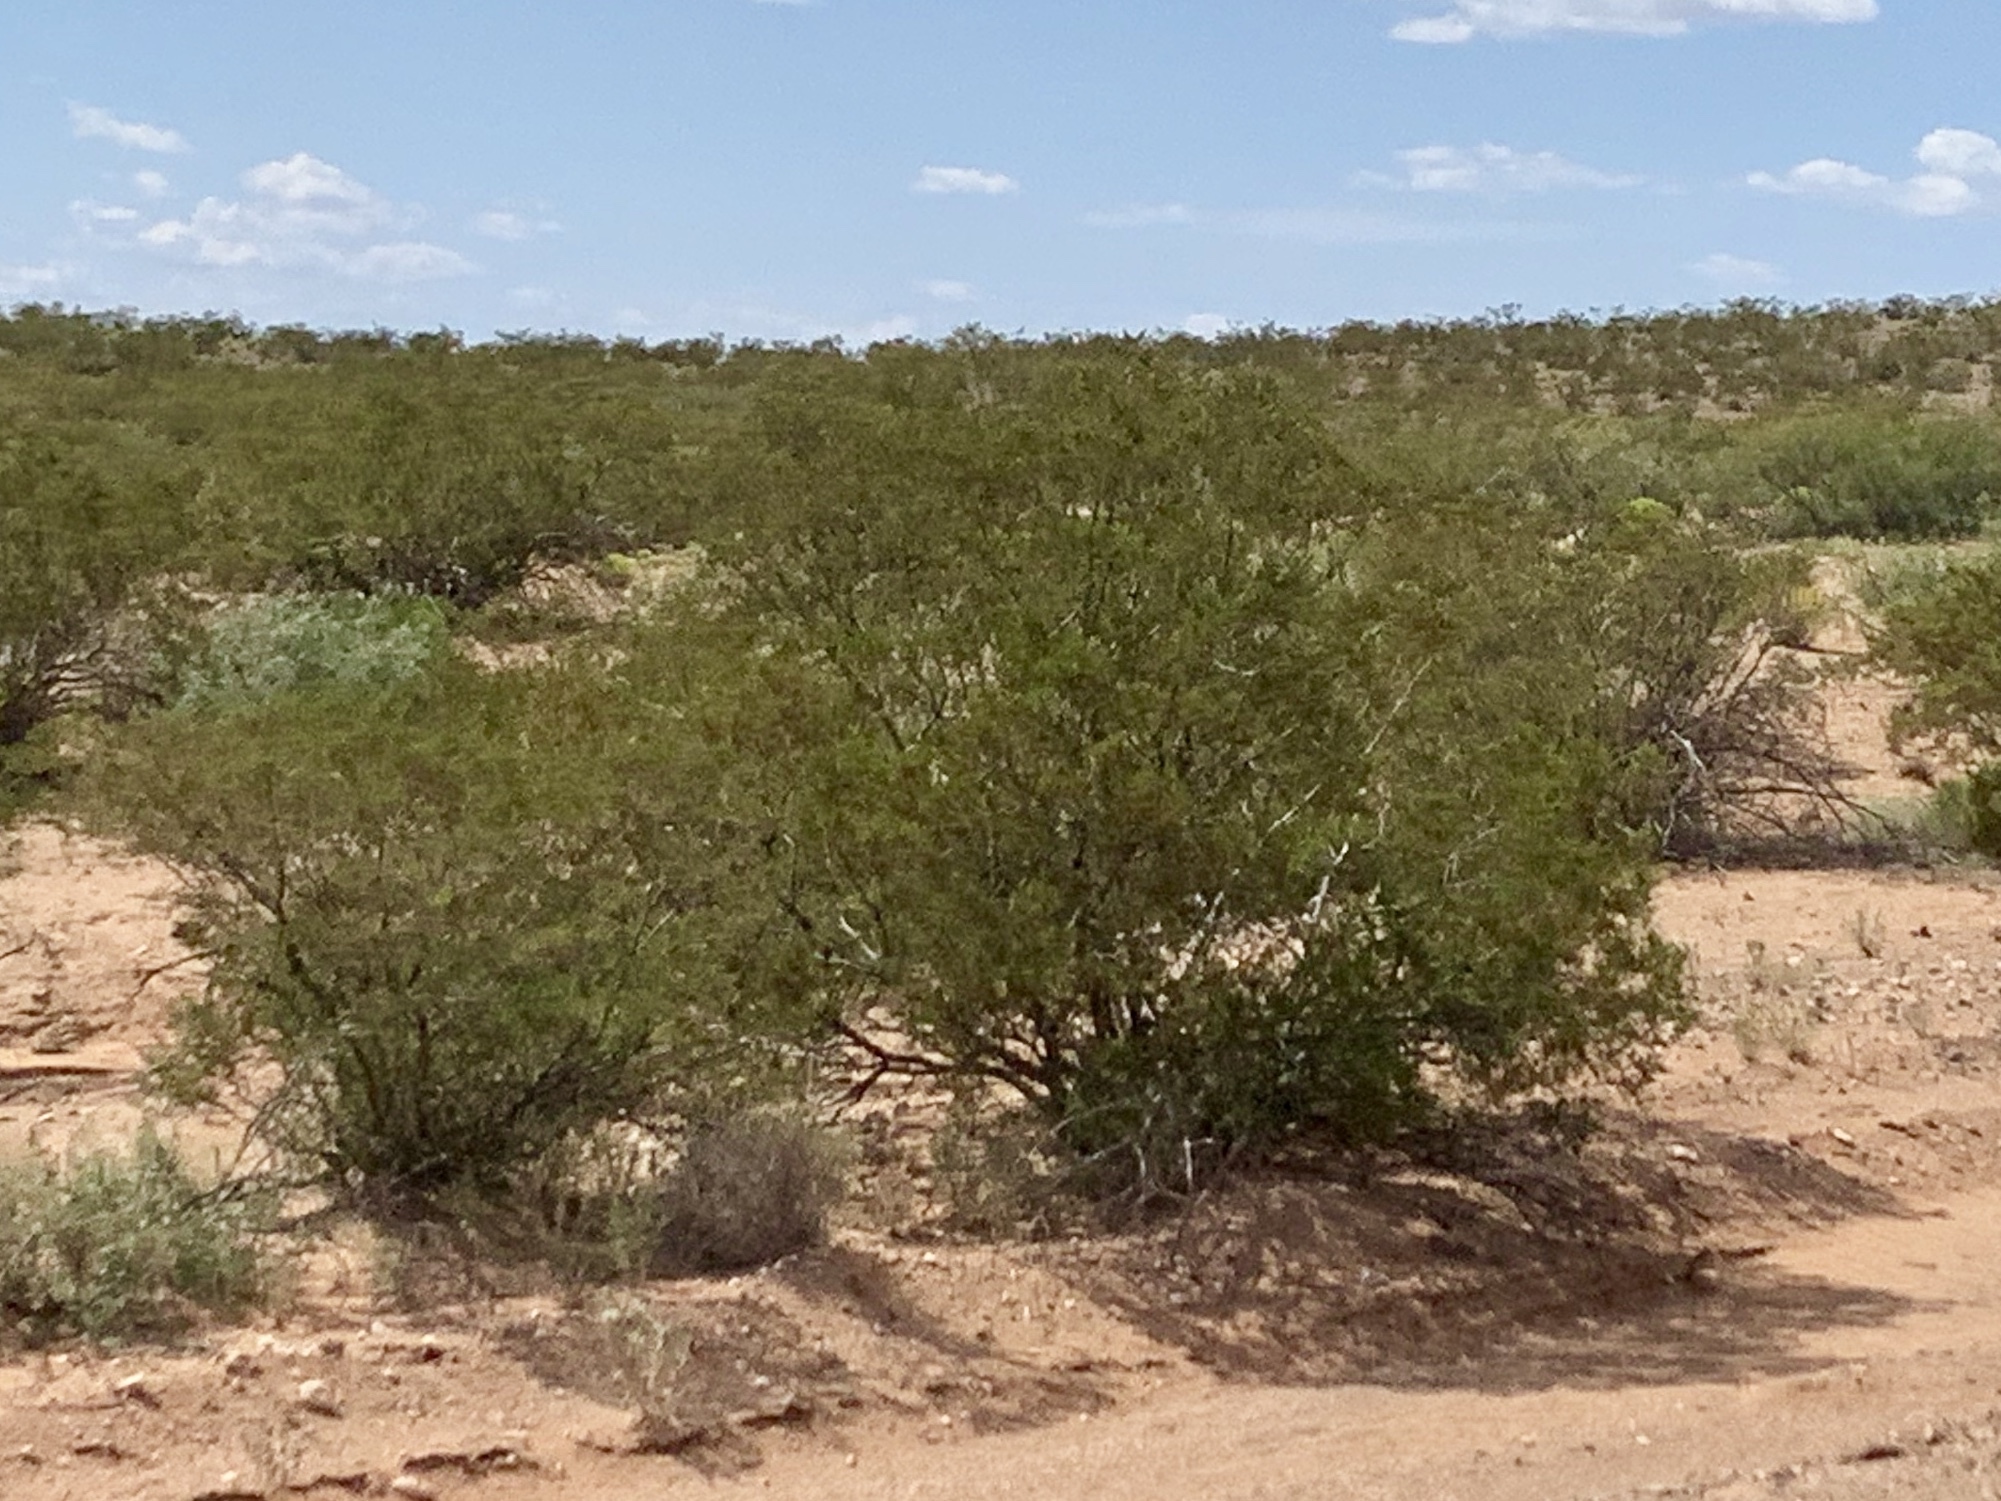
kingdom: Plantae
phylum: Tracheophyta
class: Magnoliopsida
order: Zygophyllales
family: Zygophyllaceae
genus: Larrea
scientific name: Larrea tridentata
